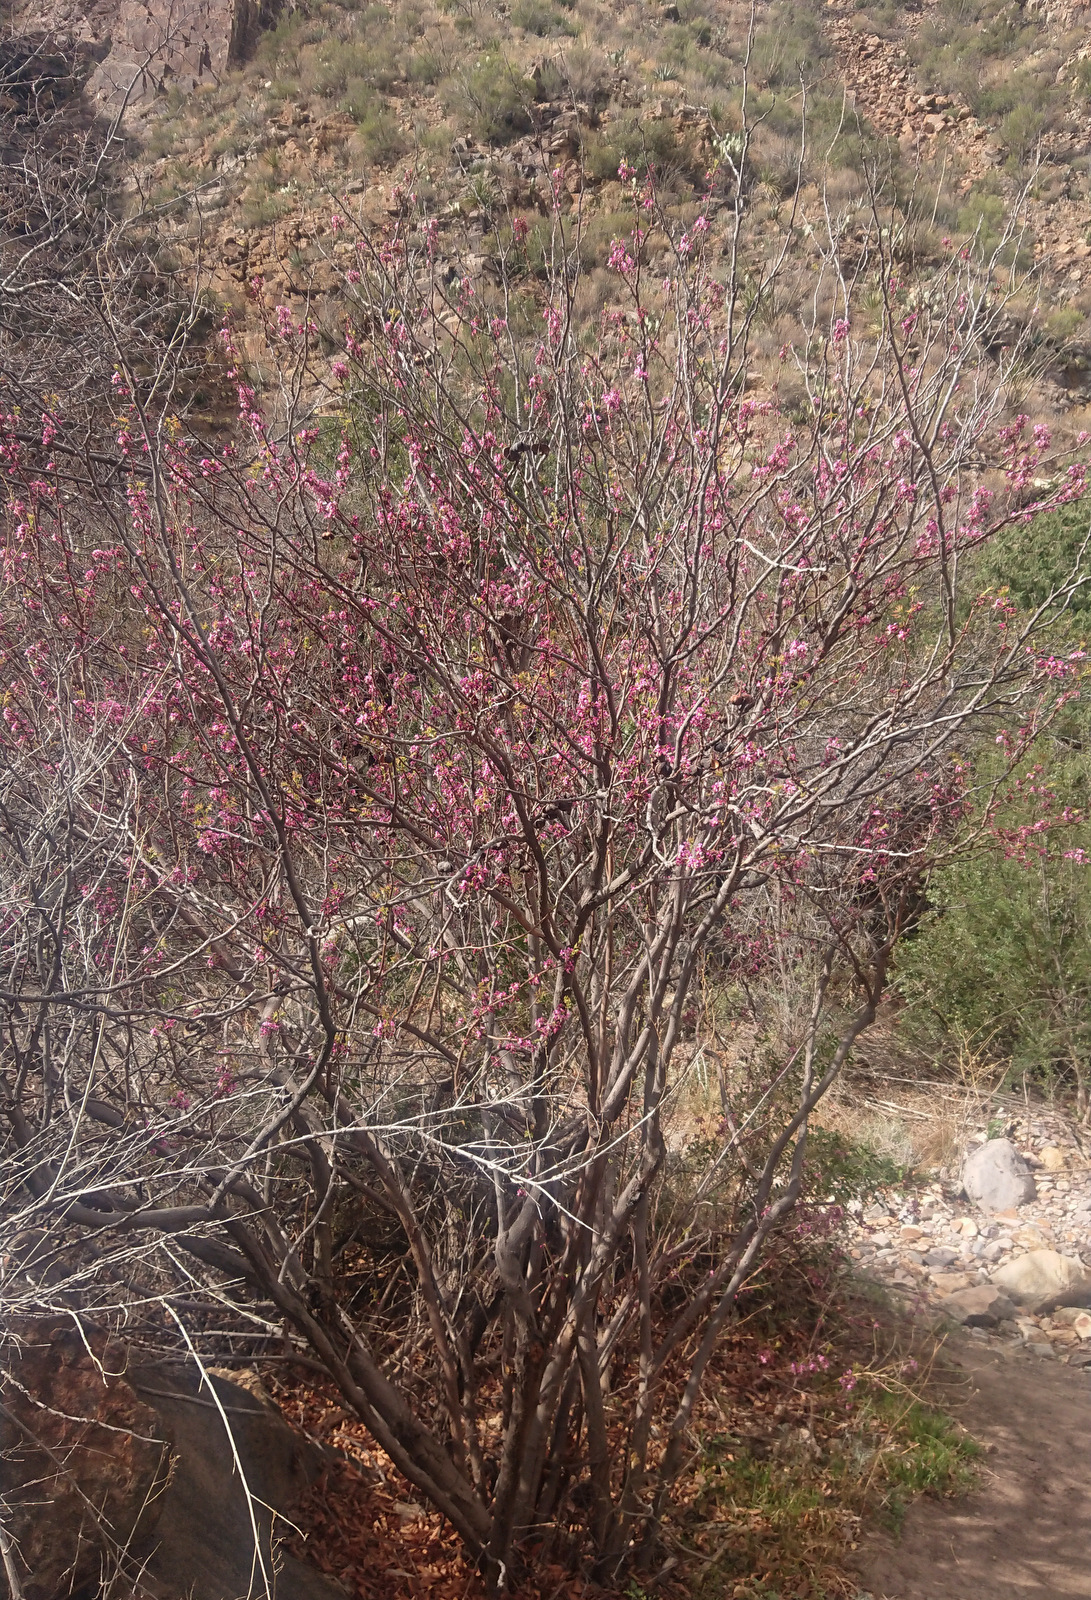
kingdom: Plantae
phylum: Tracheophyta
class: Magnoliopsida
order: Sapindales
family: Sapindaceae
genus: Ungnadia
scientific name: Ungnadia speciosa
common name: Texas-buckeye
